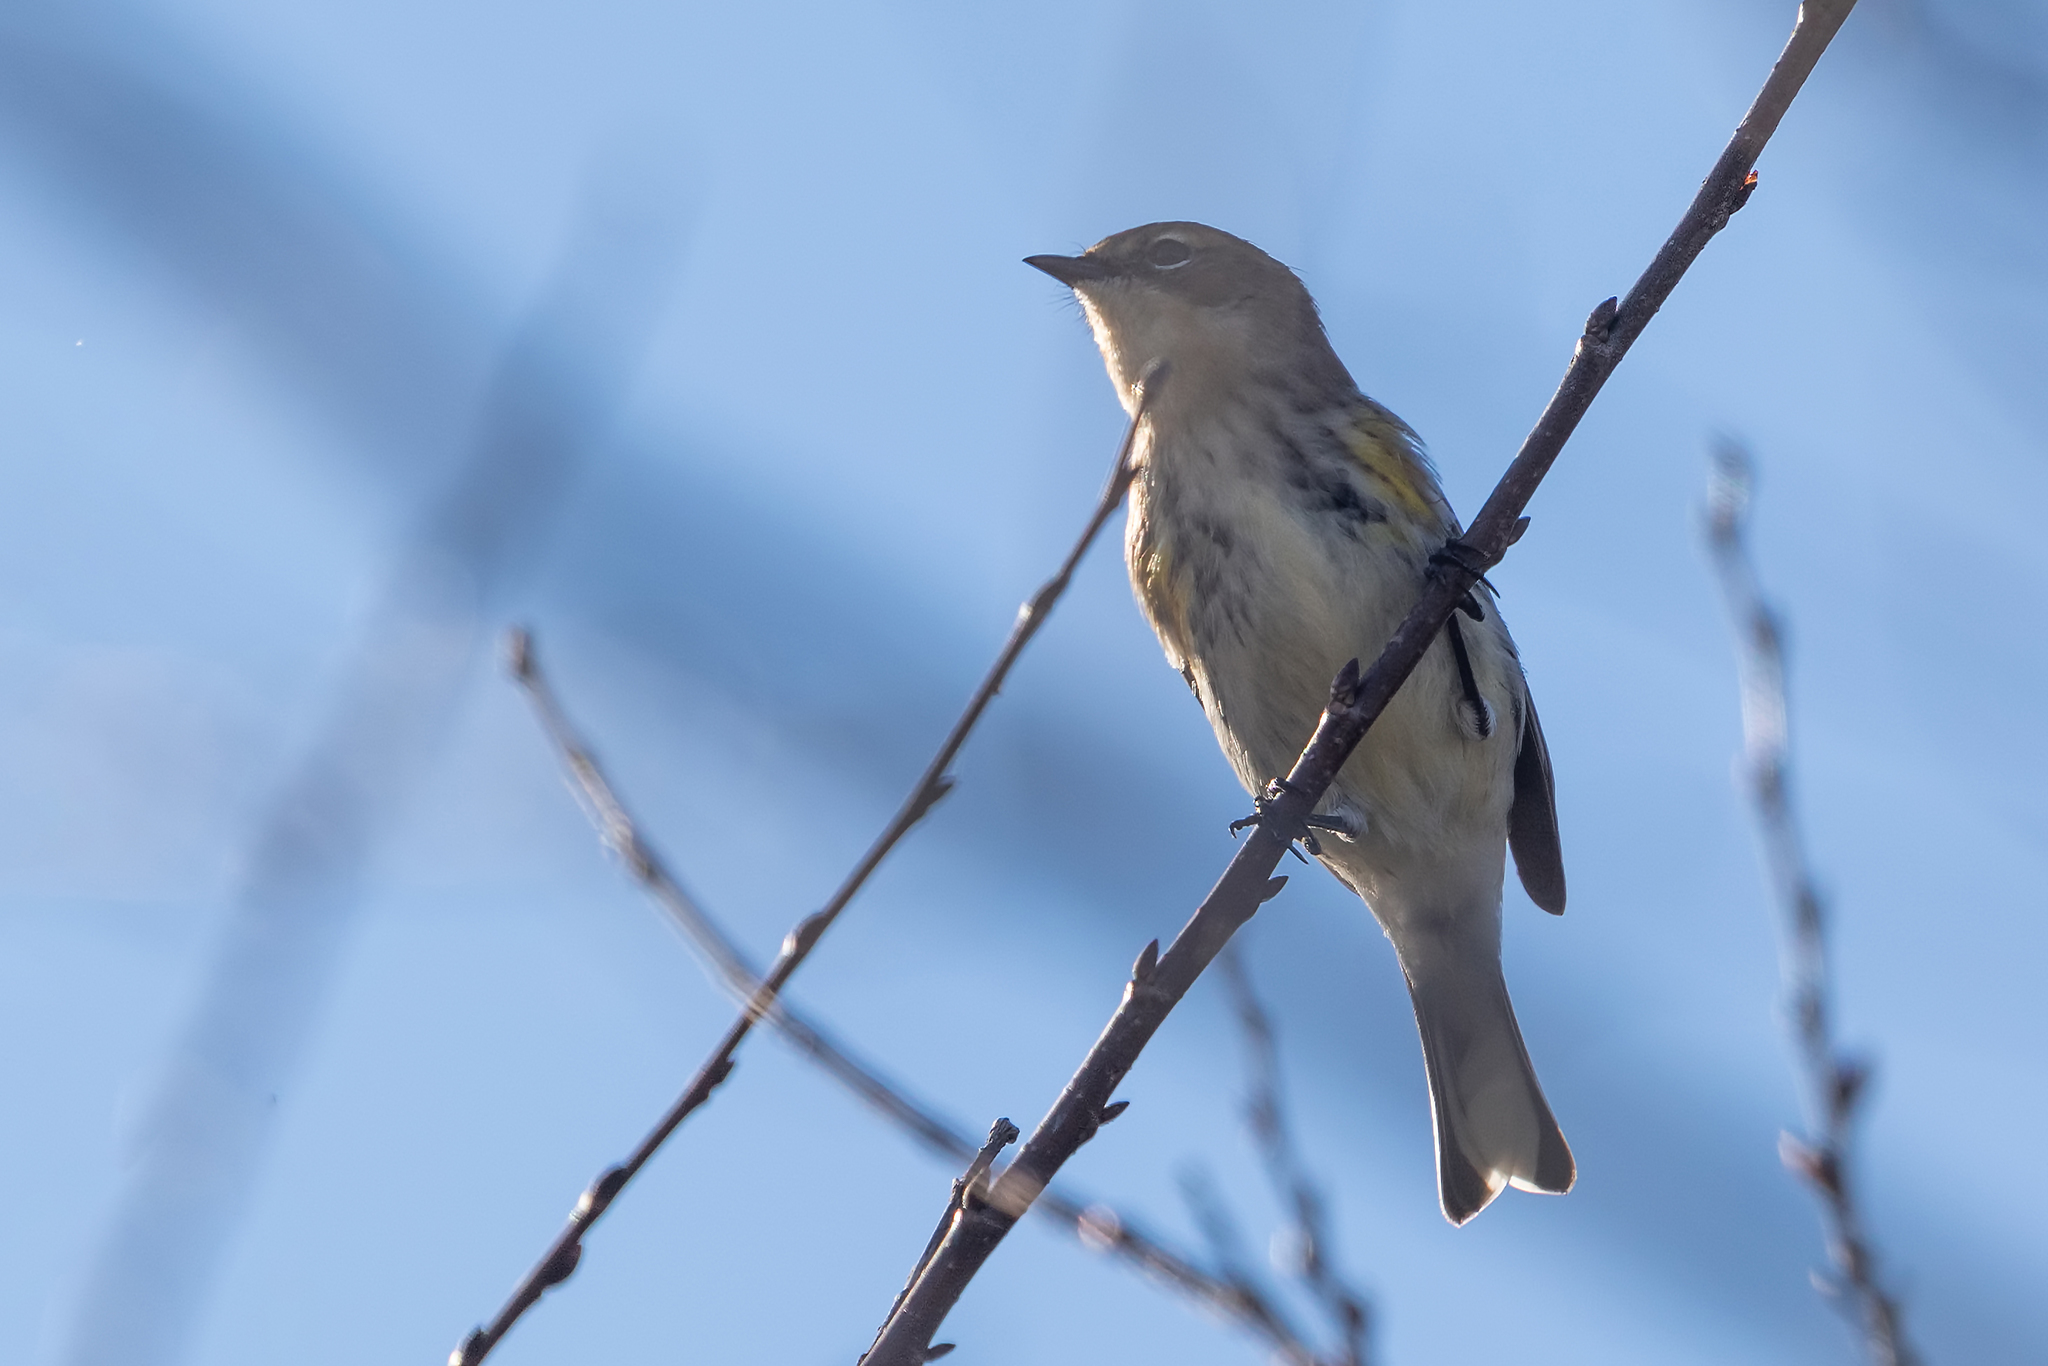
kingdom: Animalia
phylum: Chordata
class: Aves
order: Passeriformes
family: Parulidae
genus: Setophaga
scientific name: Setophaga coronata
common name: Myrtle warbler
